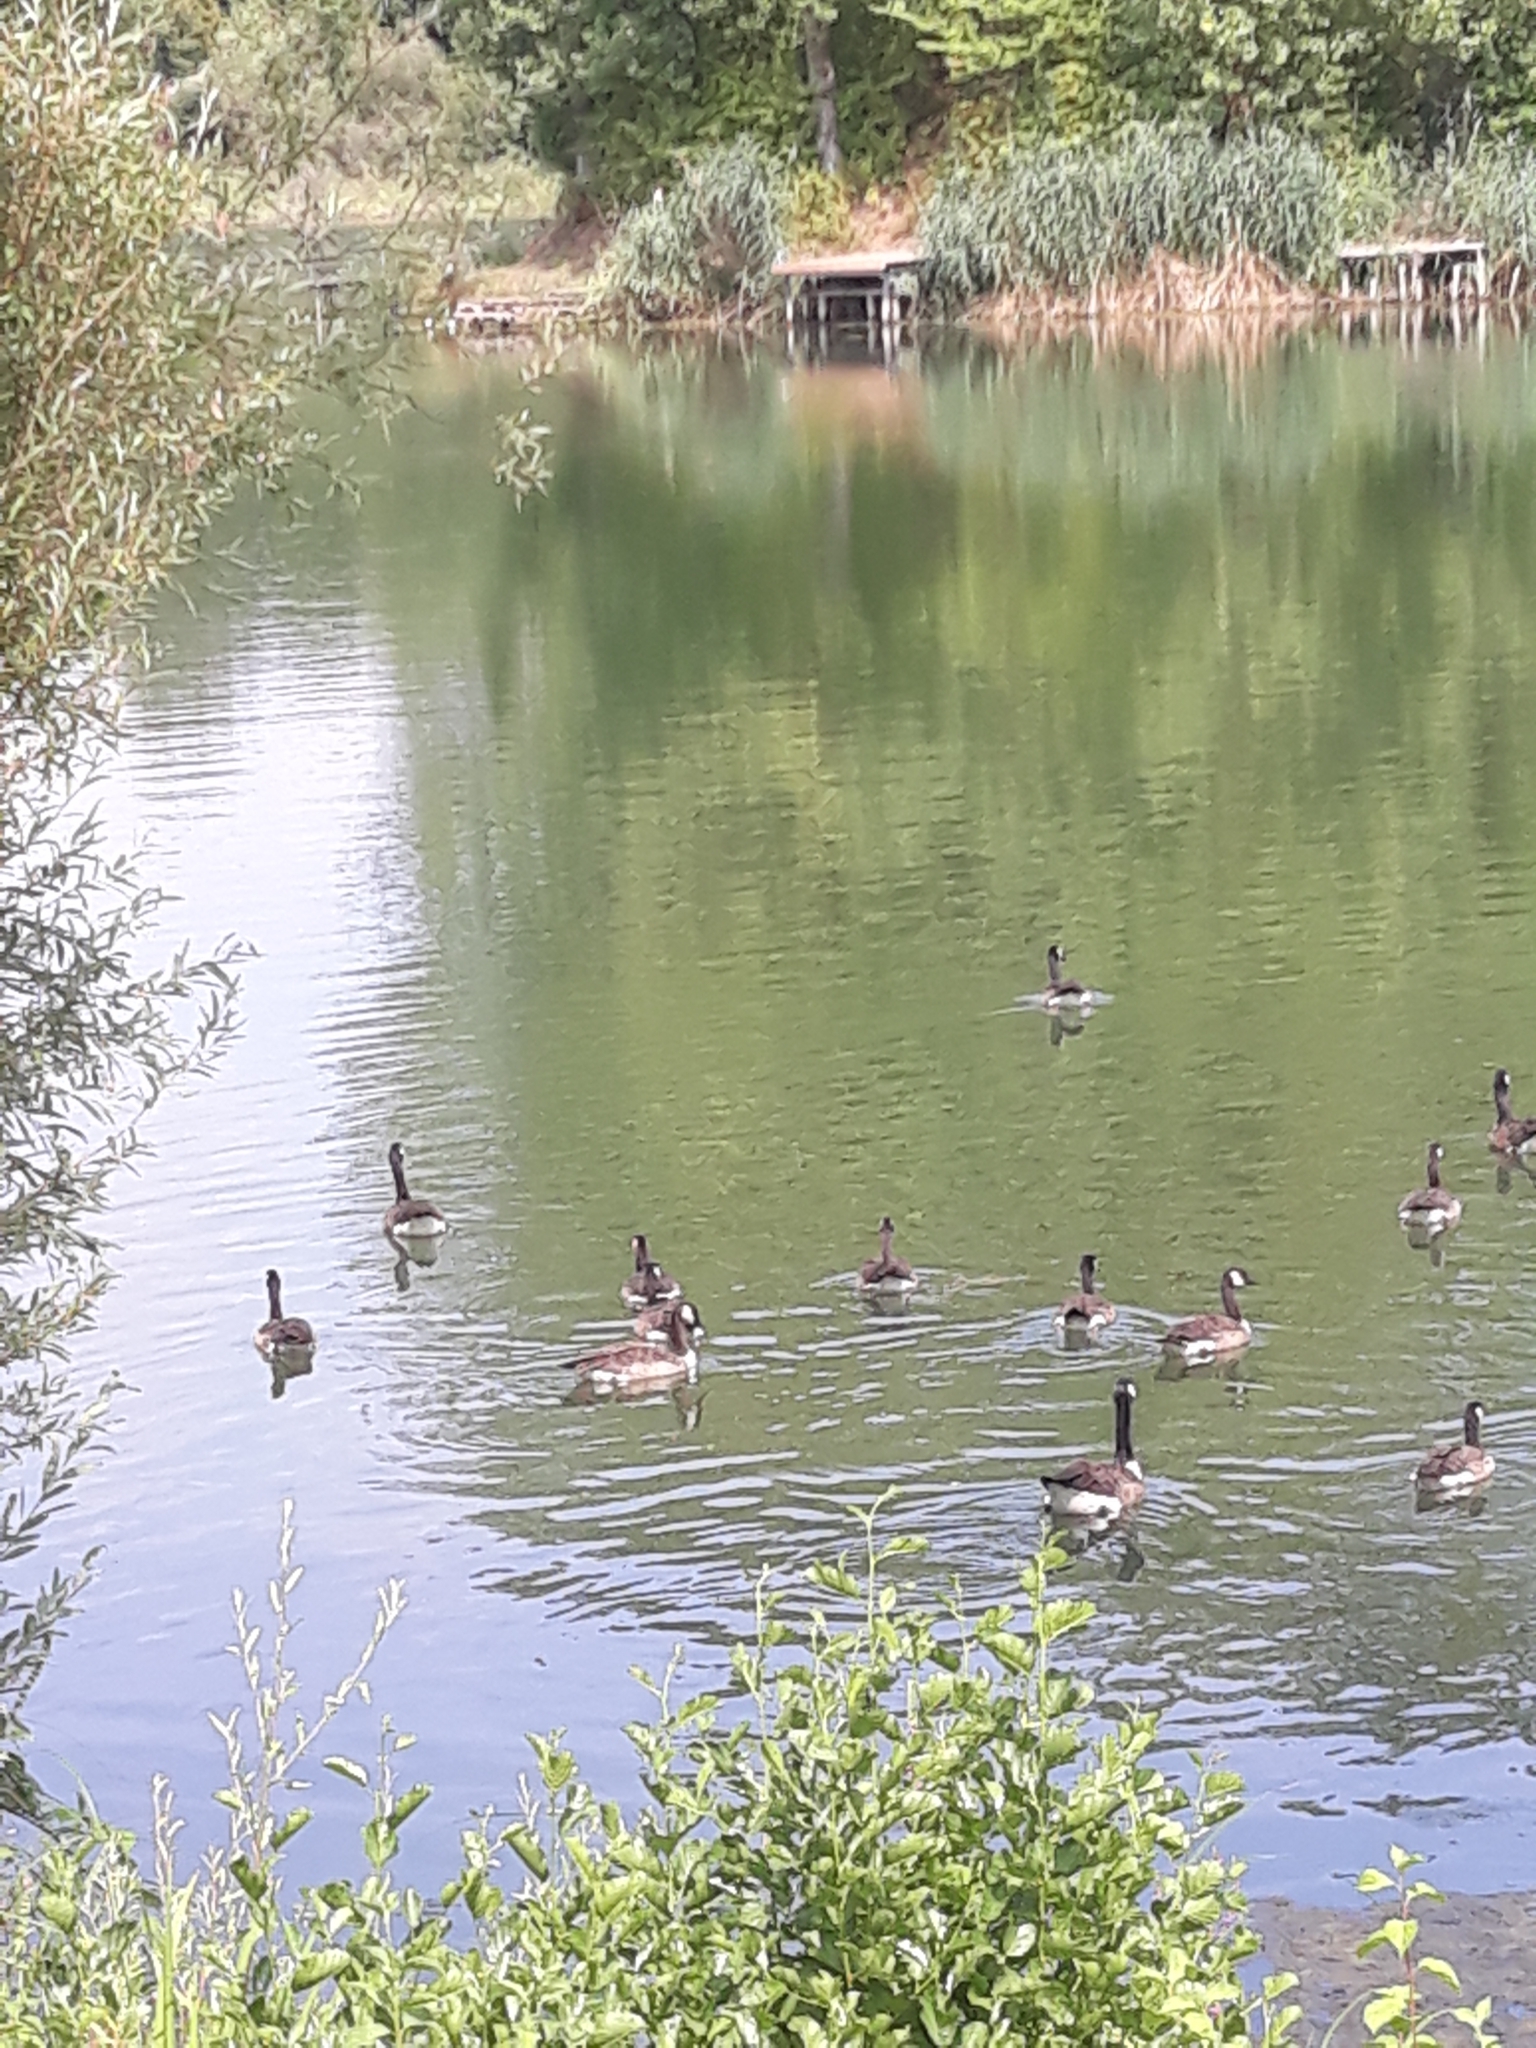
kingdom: Animalia
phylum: Chordata
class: Aves
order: Anseriformes
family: Anatidae
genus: Branta
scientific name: Branta canadensis
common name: Canada goose
